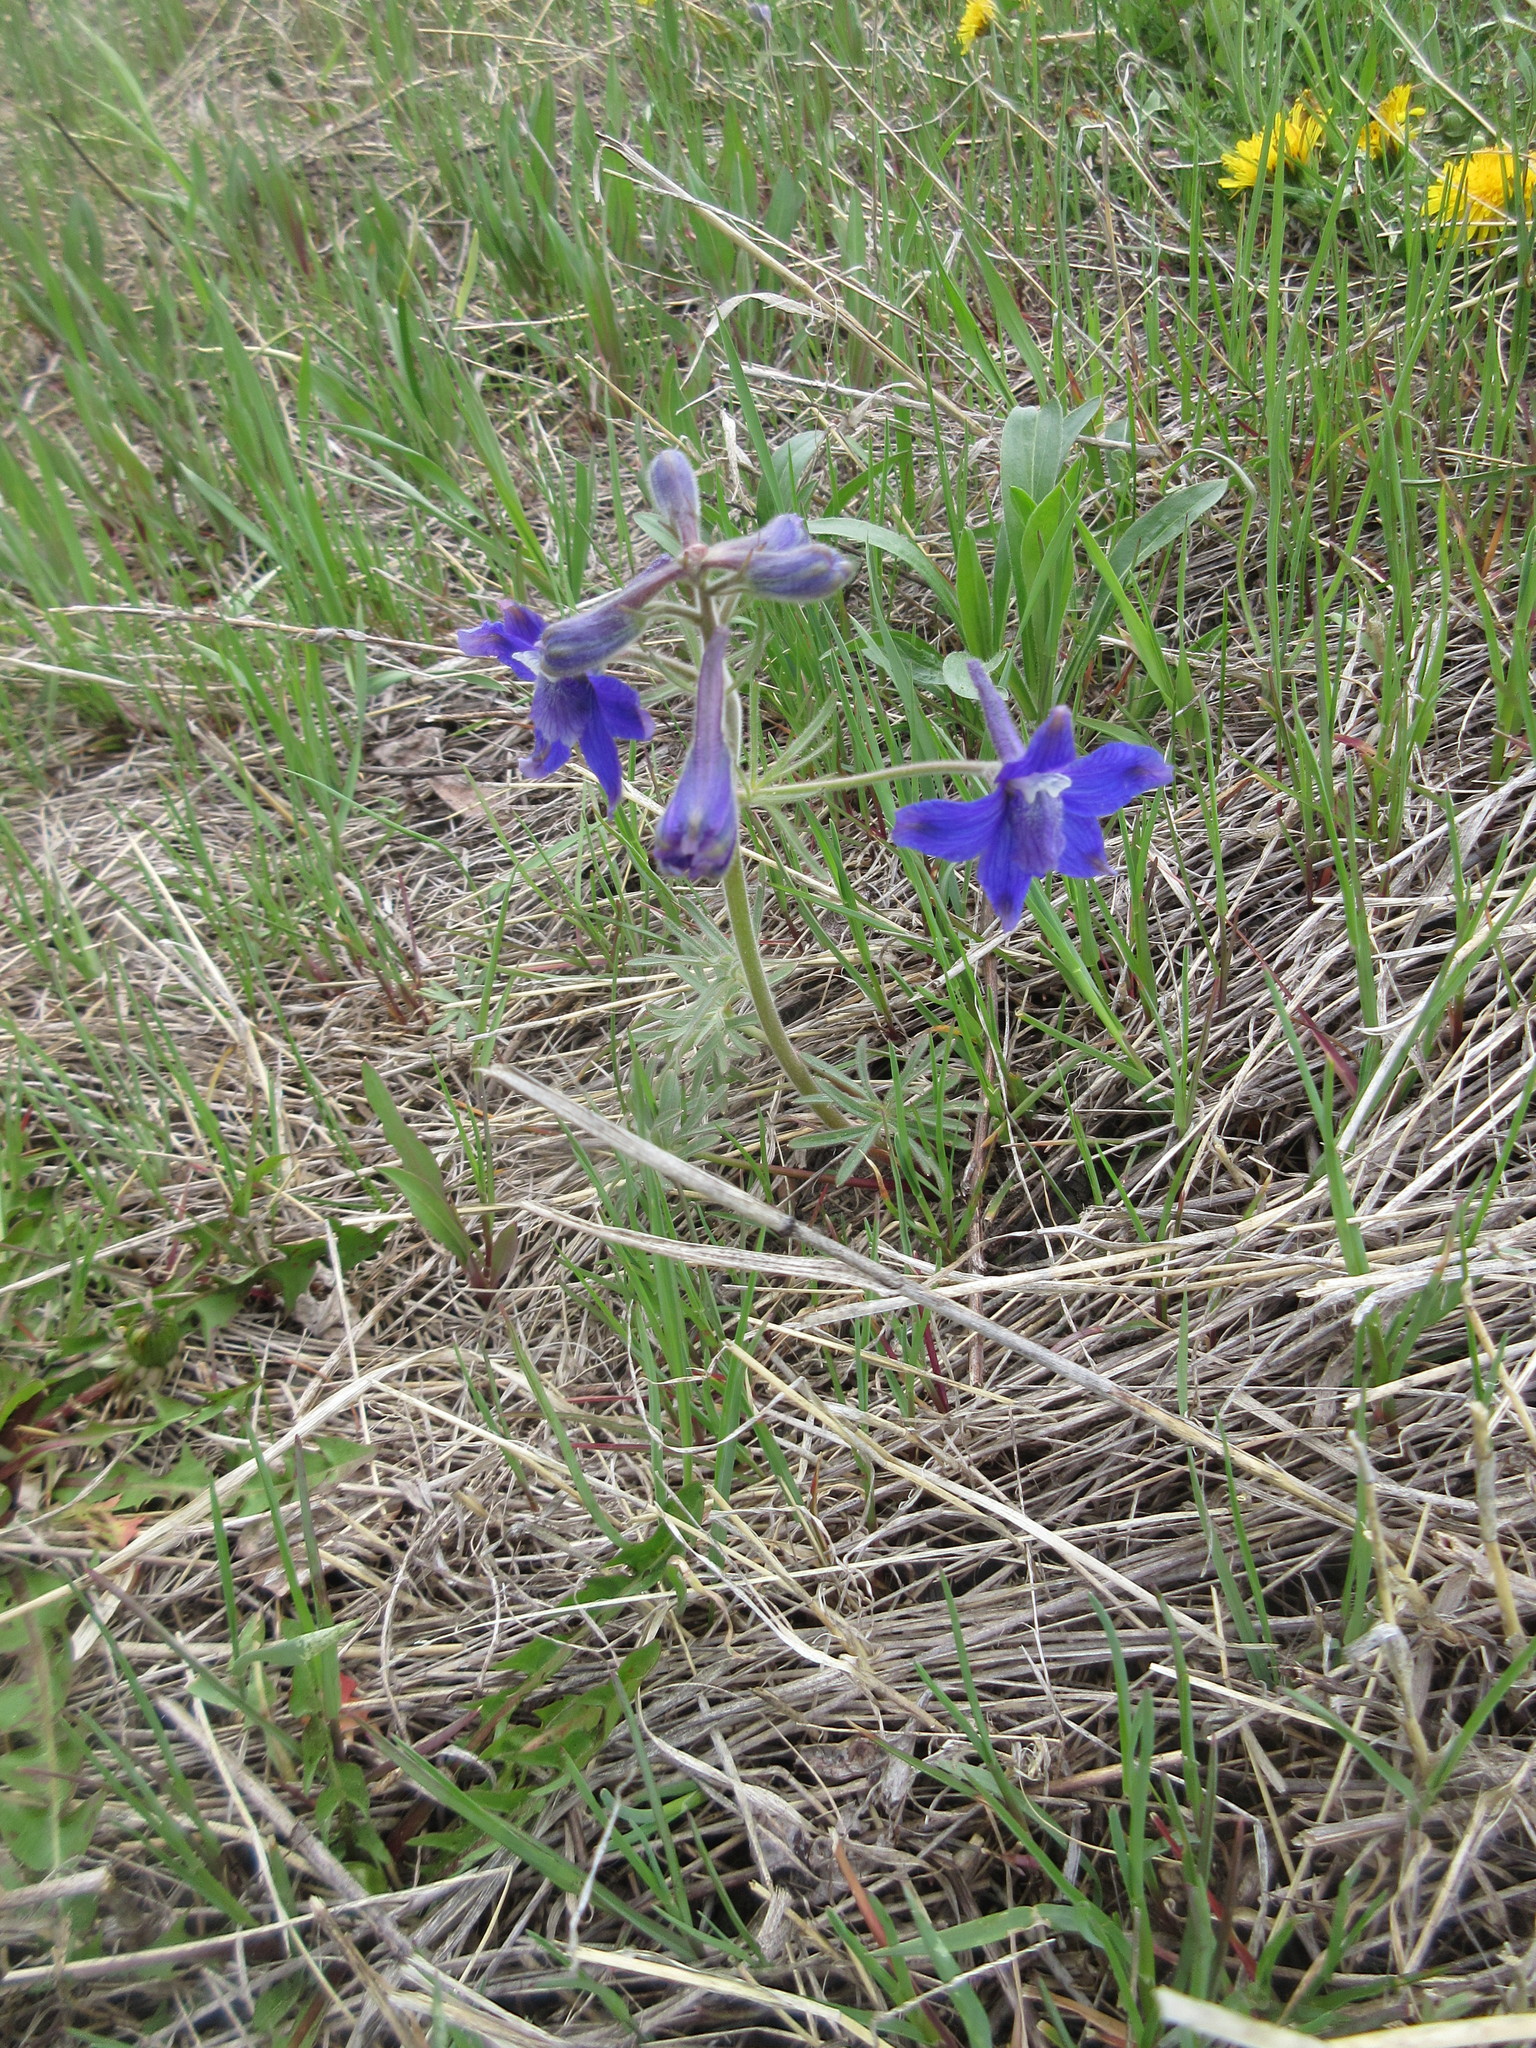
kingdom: Plantae
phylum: Tracheophyta
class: Magnoliopsida
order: Ranunculales
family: Ranunculaceae
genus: Delphinium
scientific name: Delphinium bicolor
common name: Low larkspur
